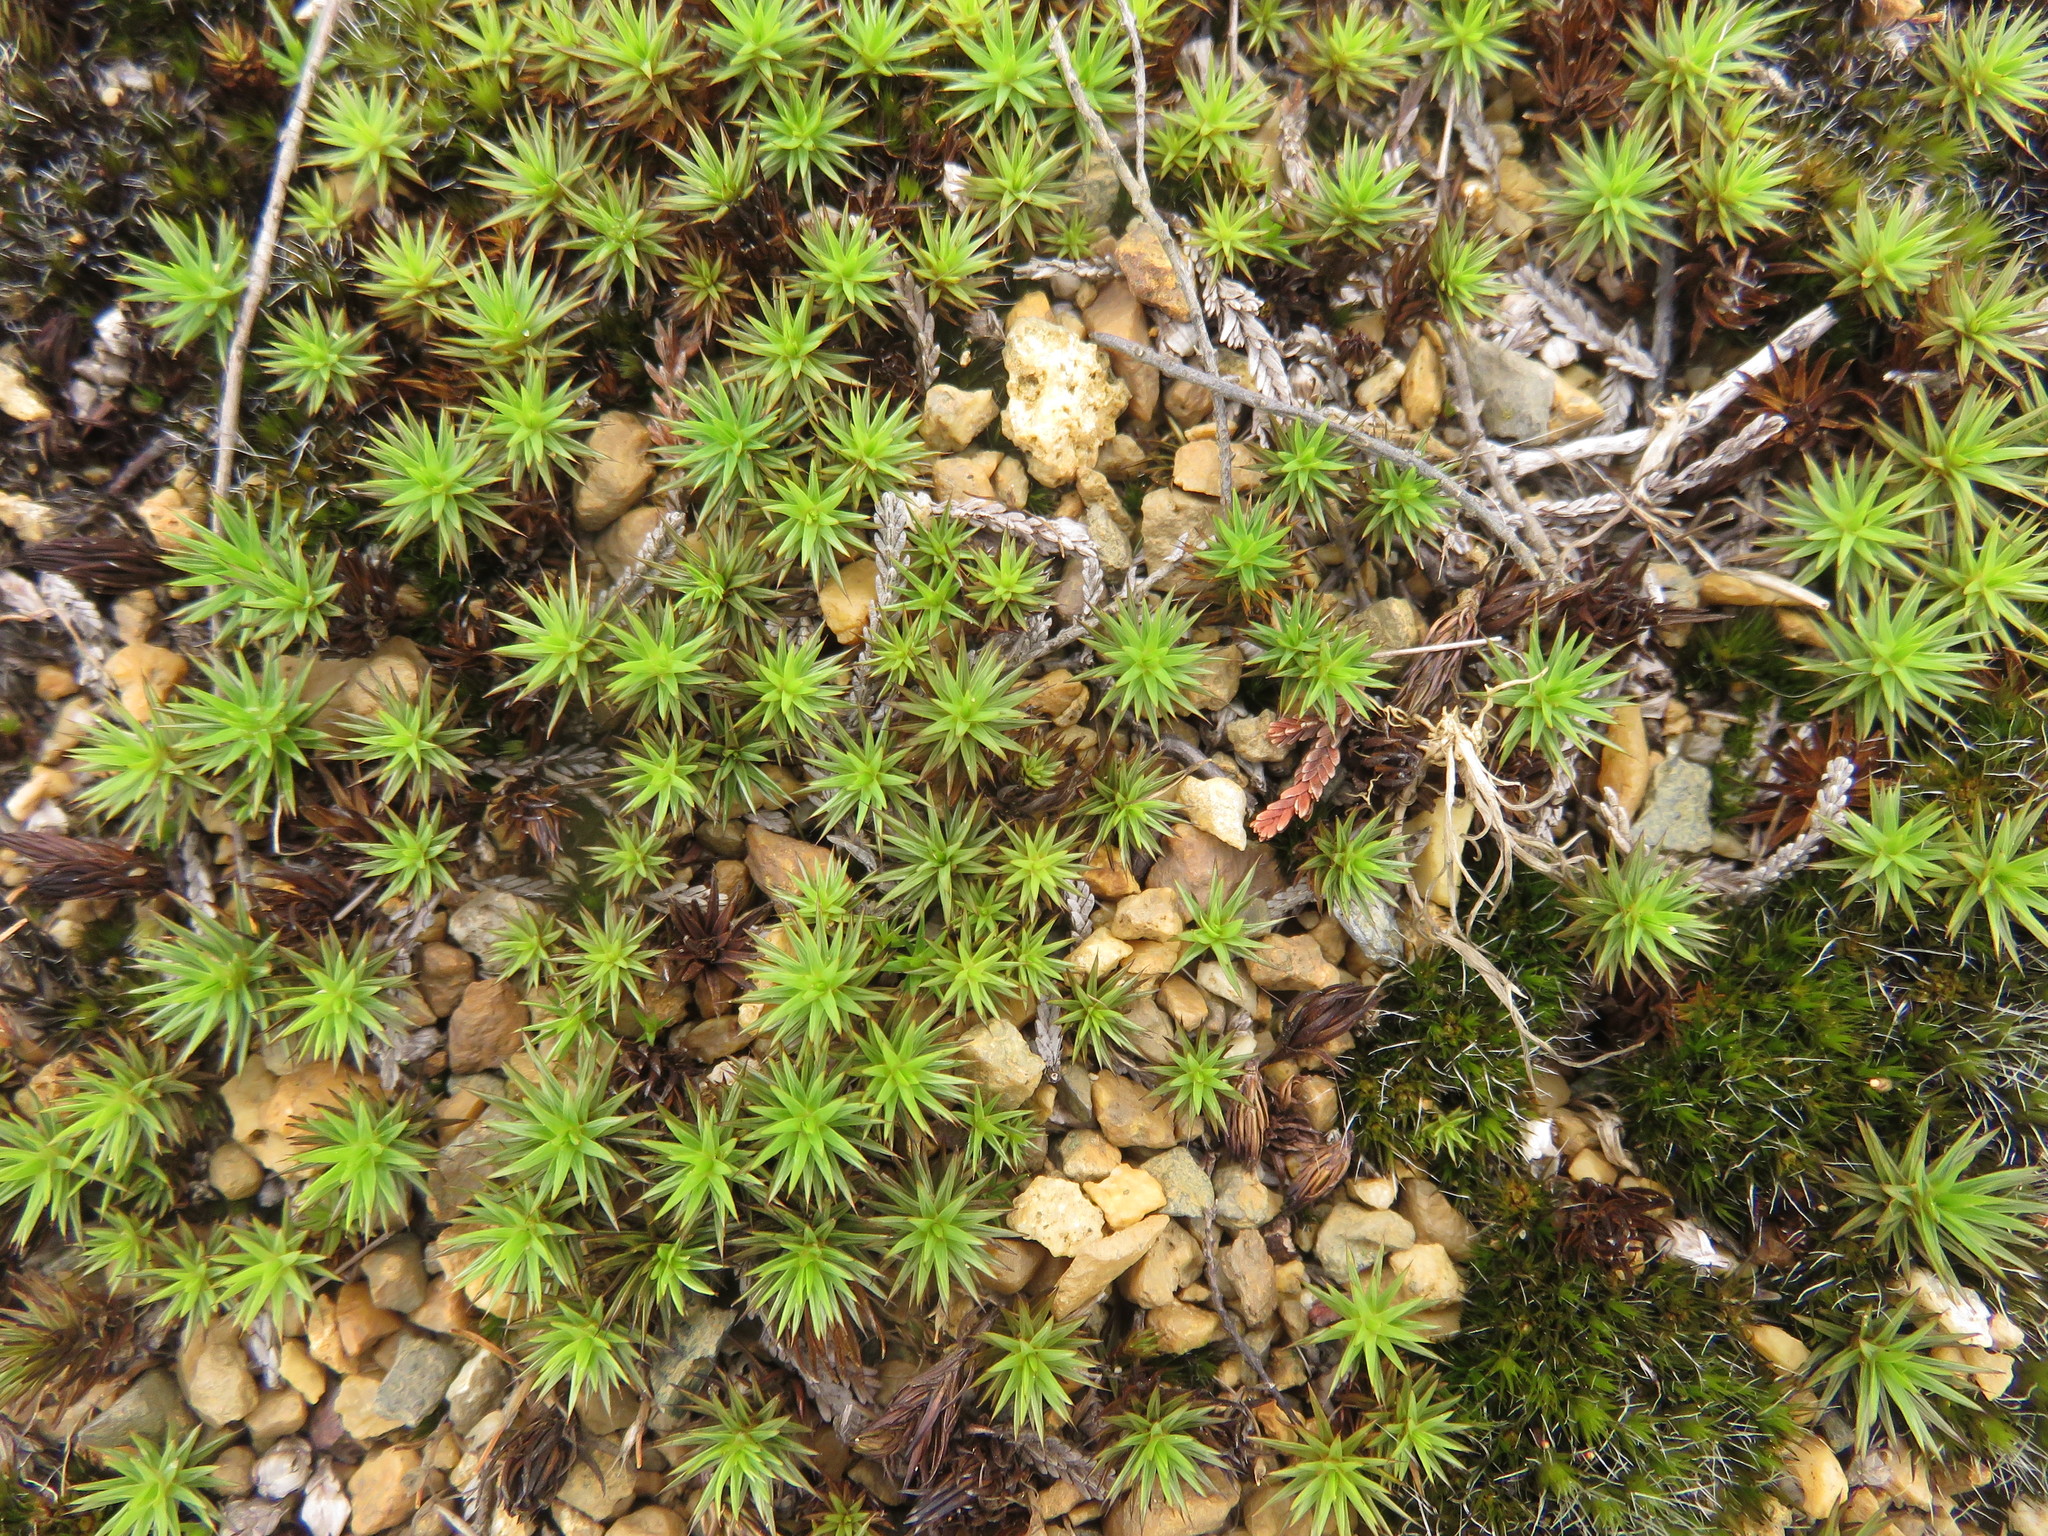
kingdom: Plantae
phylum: Bryophyta
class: Polytrichopsida
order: Polytrichales
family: Polytrichaceae
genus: Polytrichum
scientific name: Polytrichum juniperinum
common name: Juniper haircap moss
